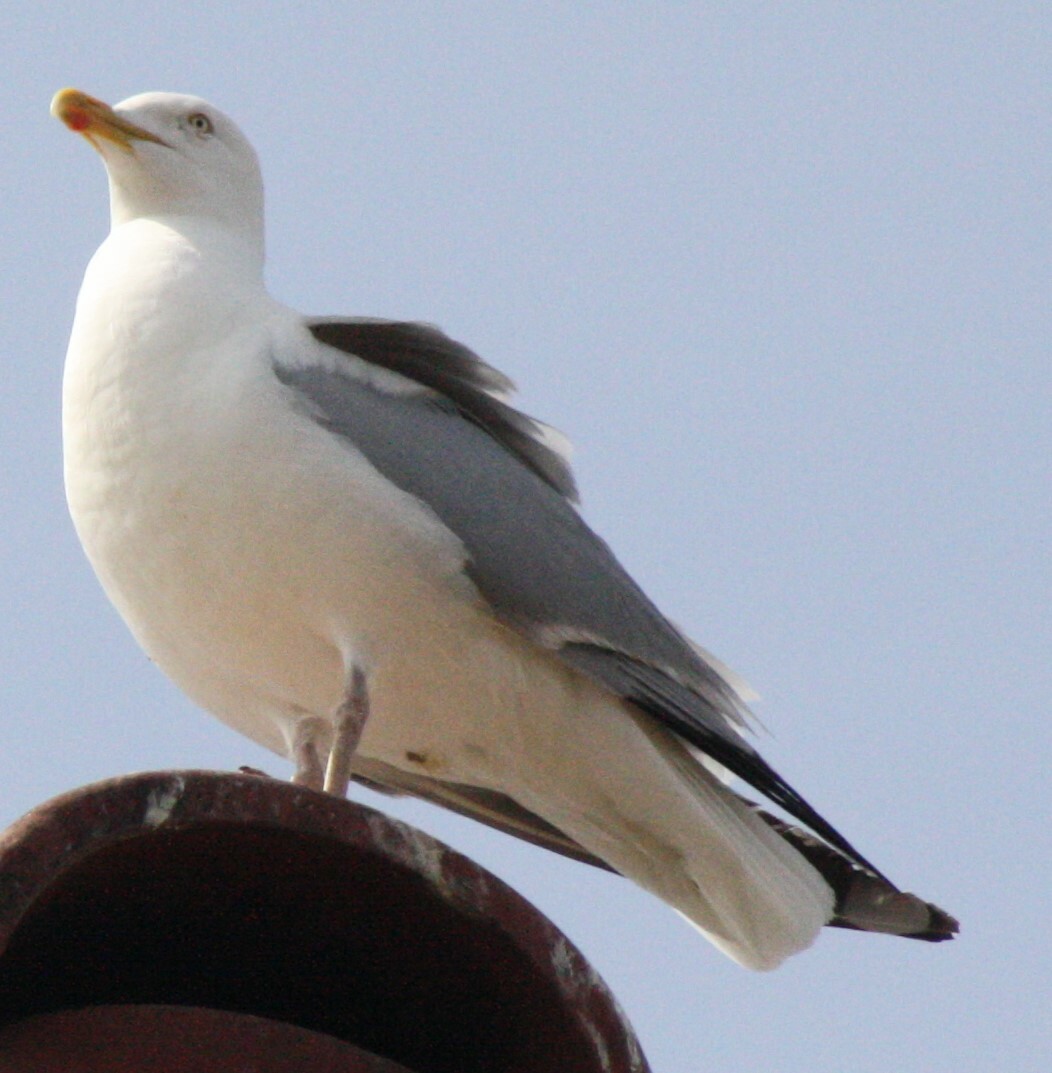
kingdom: Animalia
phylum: Chordata
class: Aves
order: Charadriiformes
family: Laridae
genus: Larus
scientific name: Larus argentatus
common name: Herring gull
